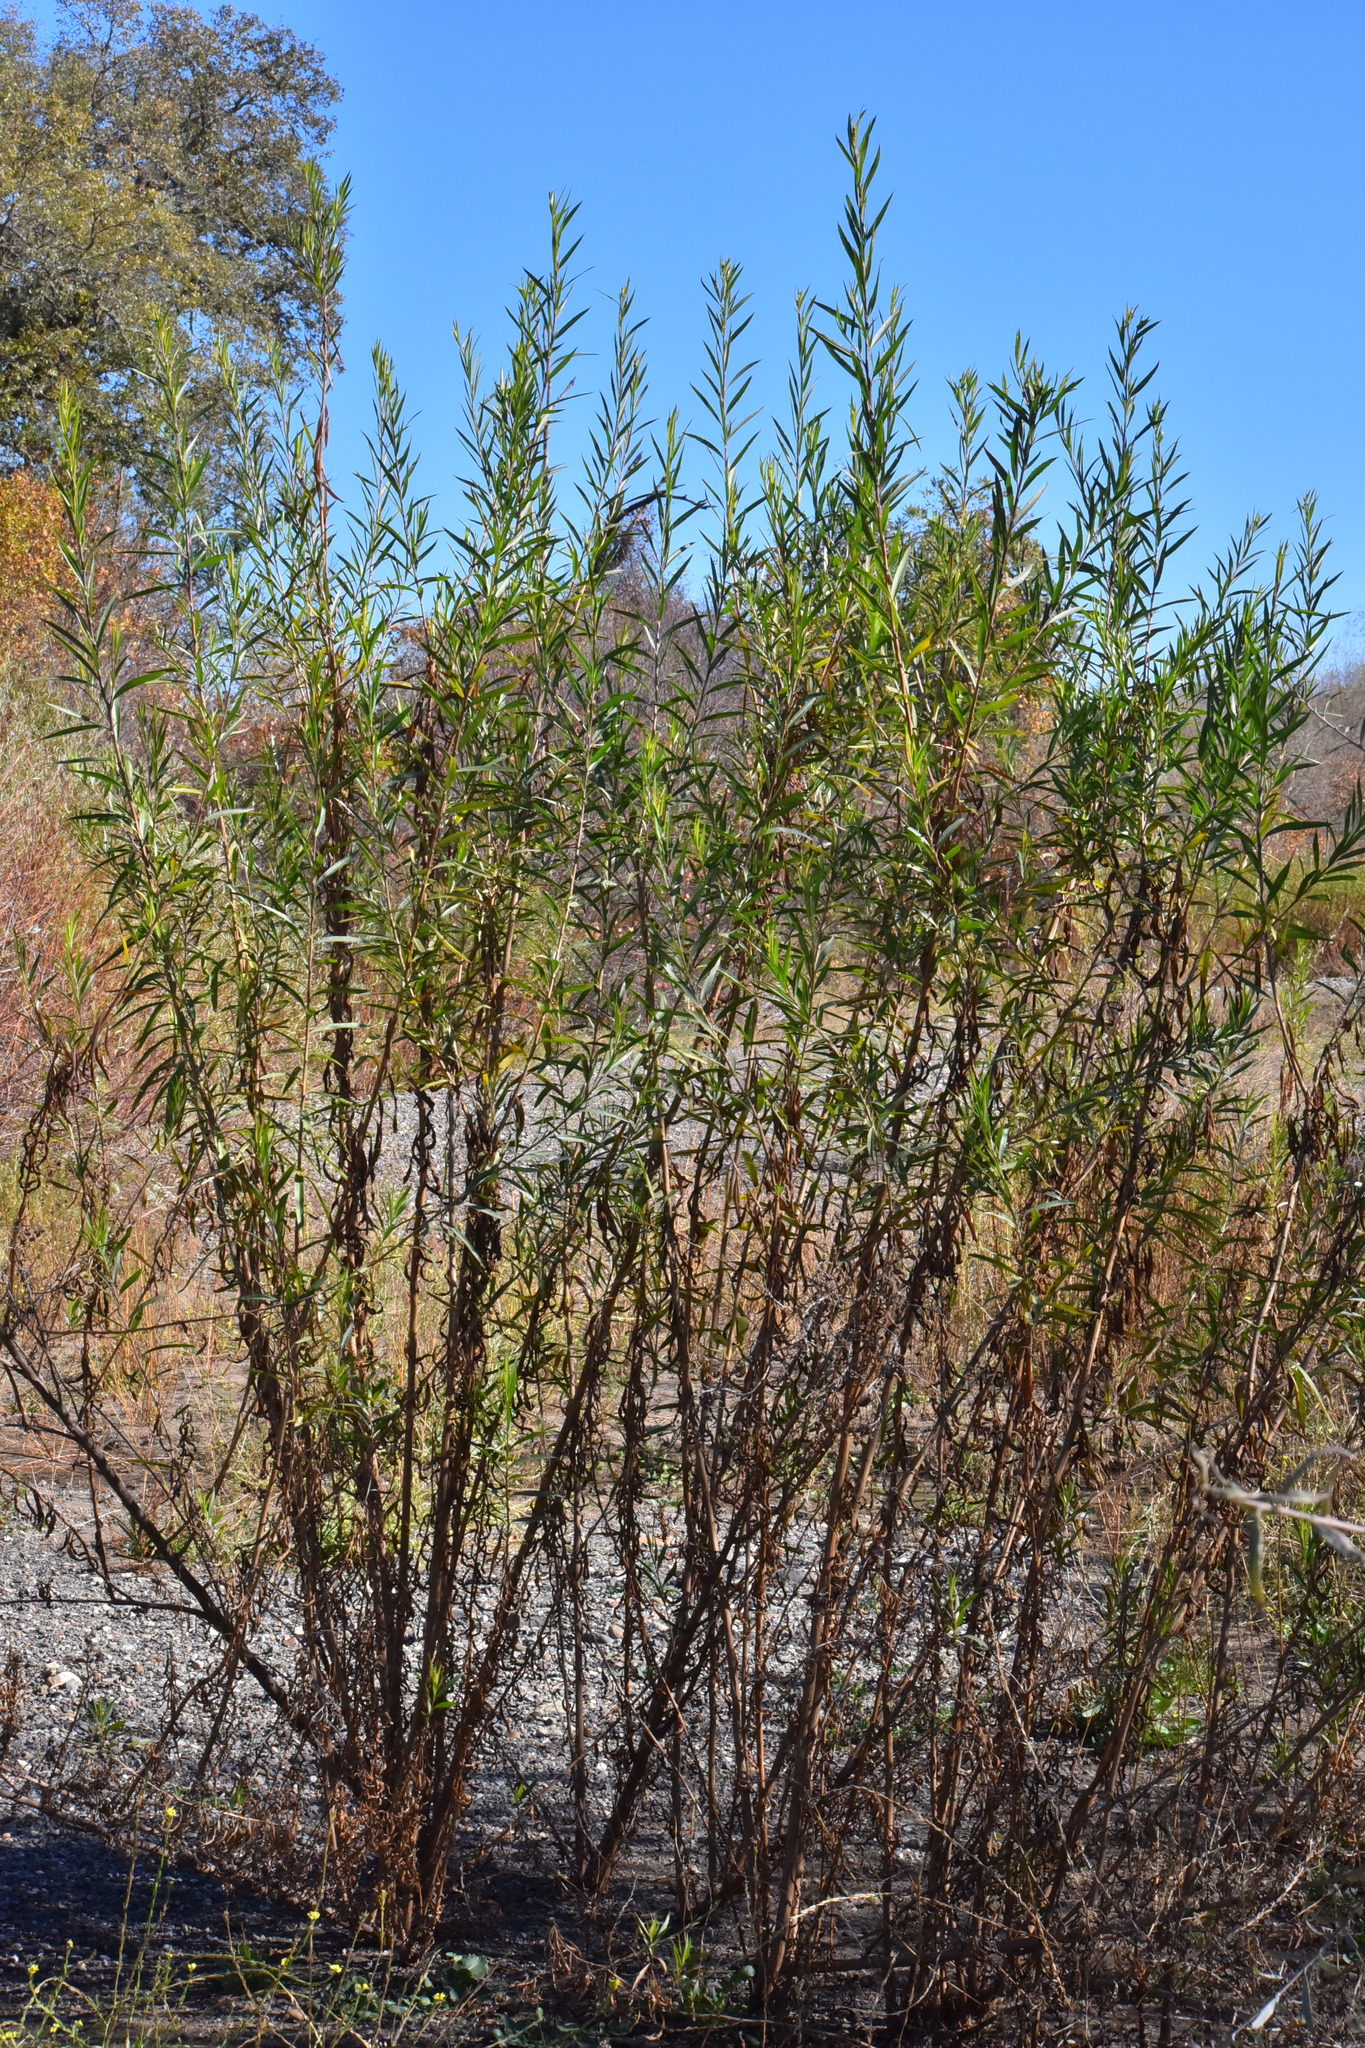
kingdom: Plantae
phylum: Tracheophyta
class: Magnoliopsida
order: Asterales
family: Asteraceae
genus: Baccharis
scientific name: Baccharis salicifolia
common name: Sticky baccharis
